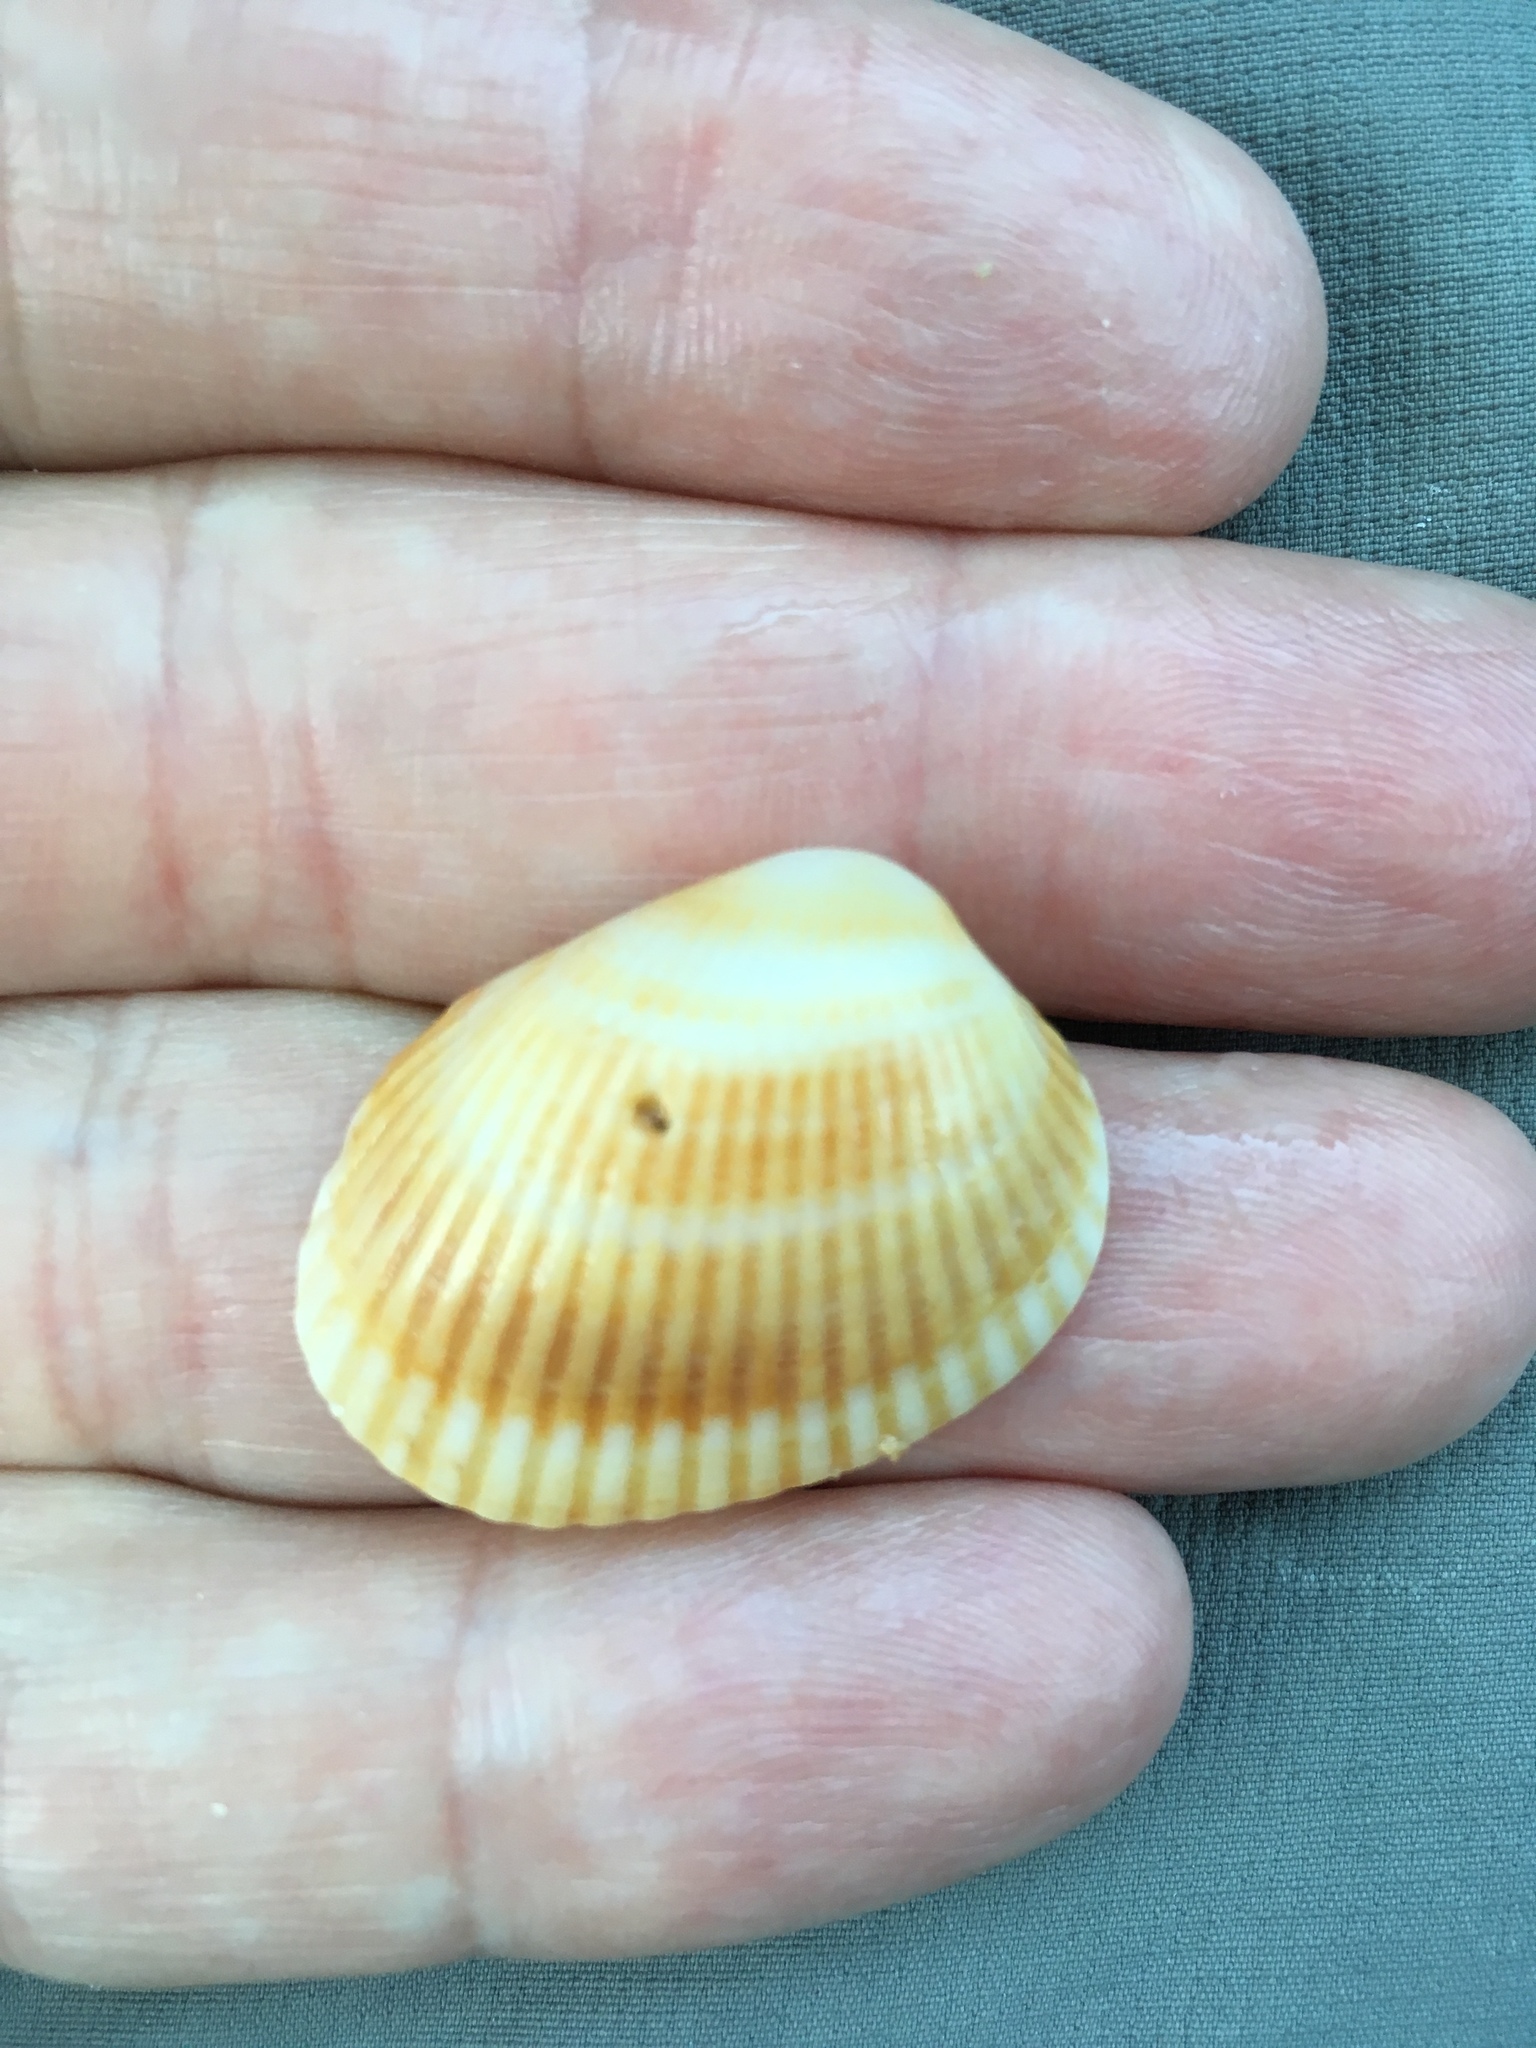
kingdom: Animalia
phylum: Mollusca
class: Bivalvia
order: Arcida
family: Arcidae
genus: Anadara
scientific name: Anadara transversa
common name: Transverse ark
